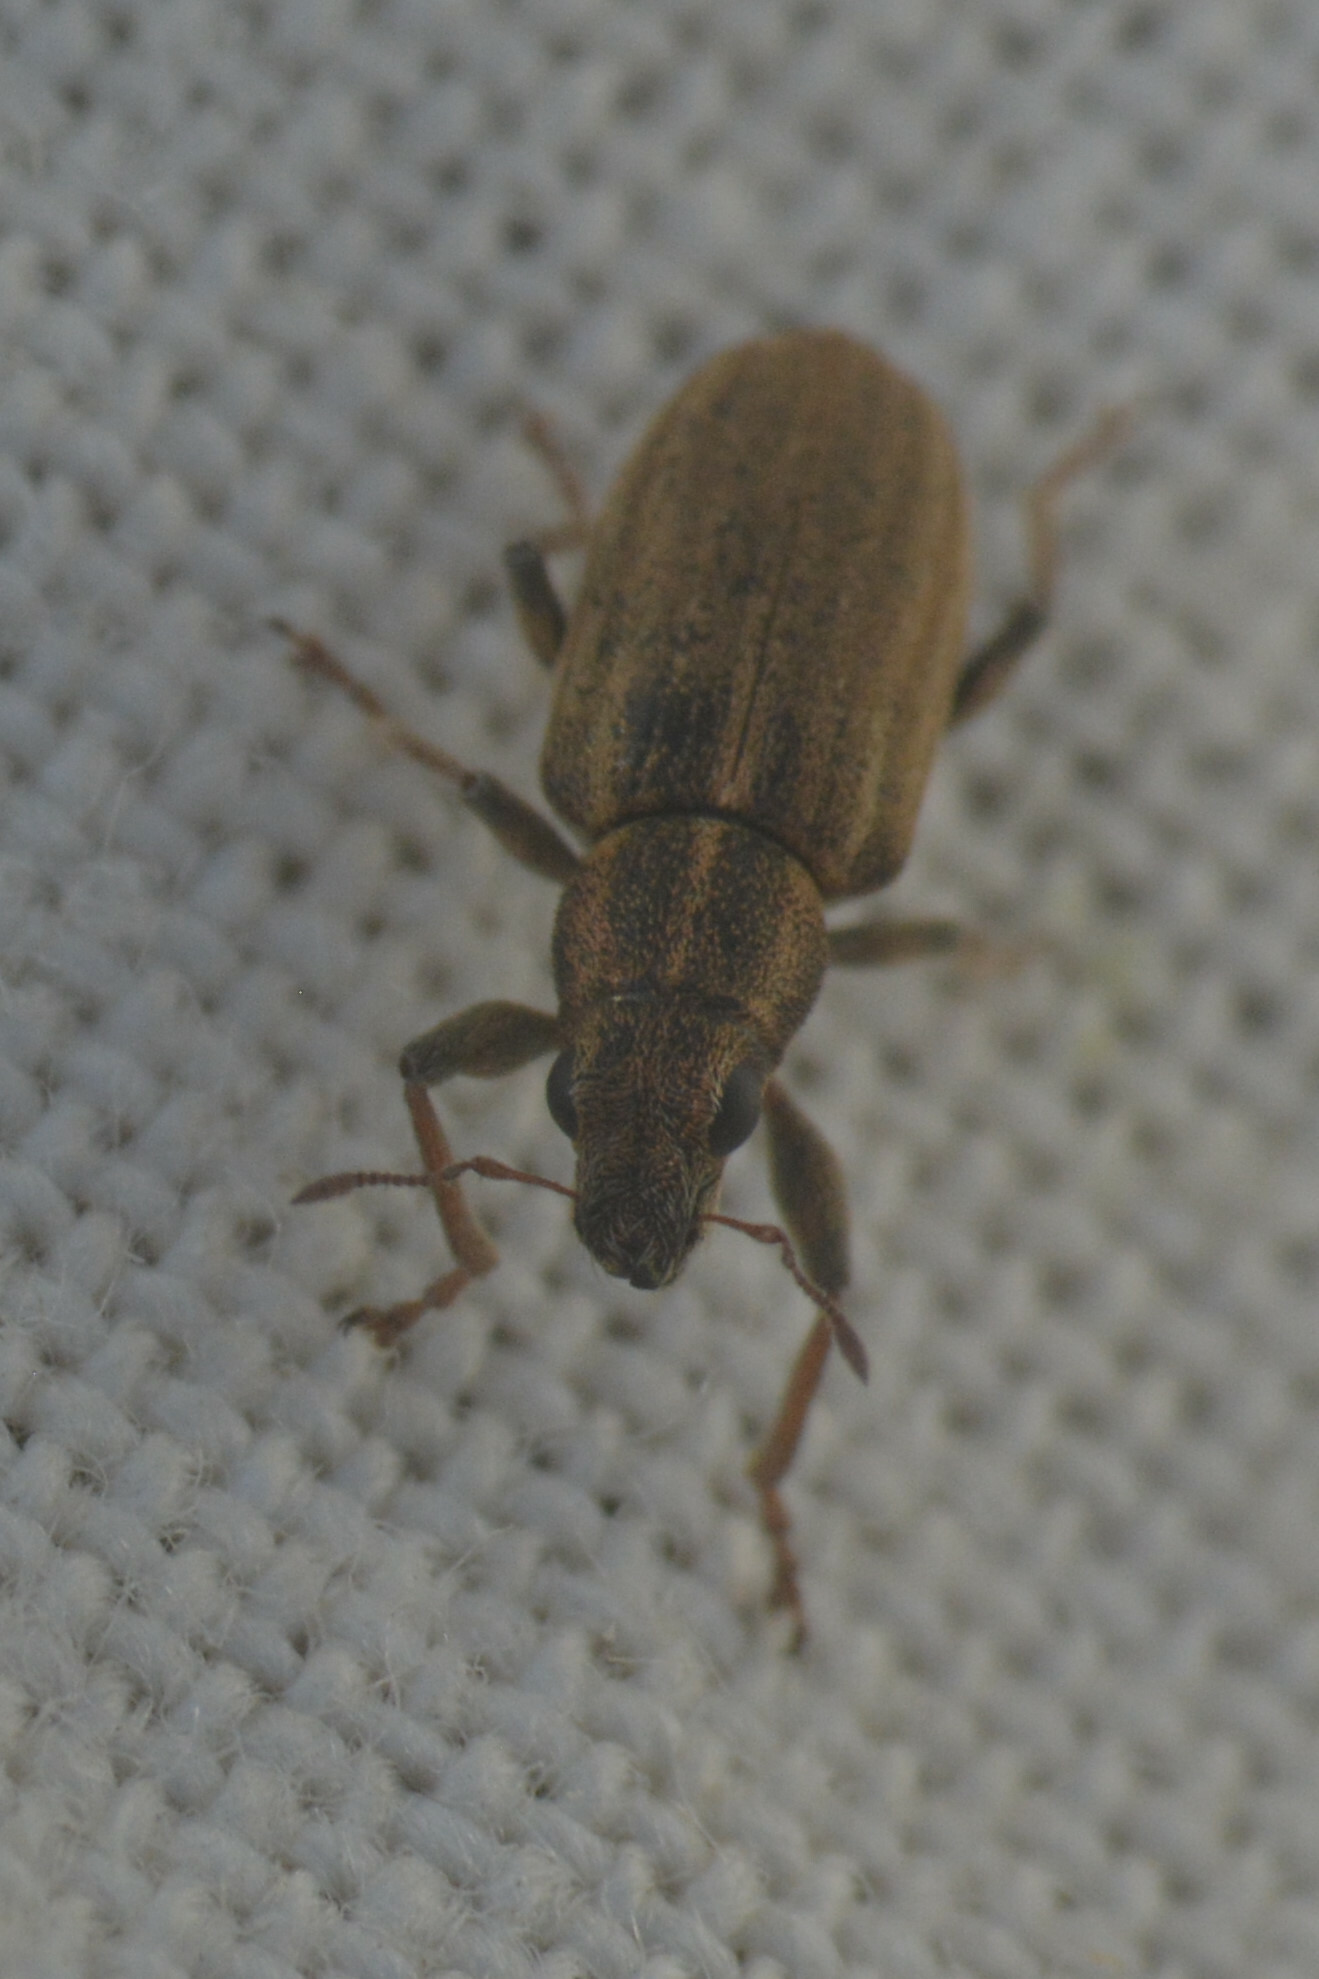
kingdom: Animalia
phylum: Arthropoda
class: Insecta
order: Coleoptera
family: Curculionidae
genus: Sitona
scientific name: Sitona lineatus
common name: Weevil
